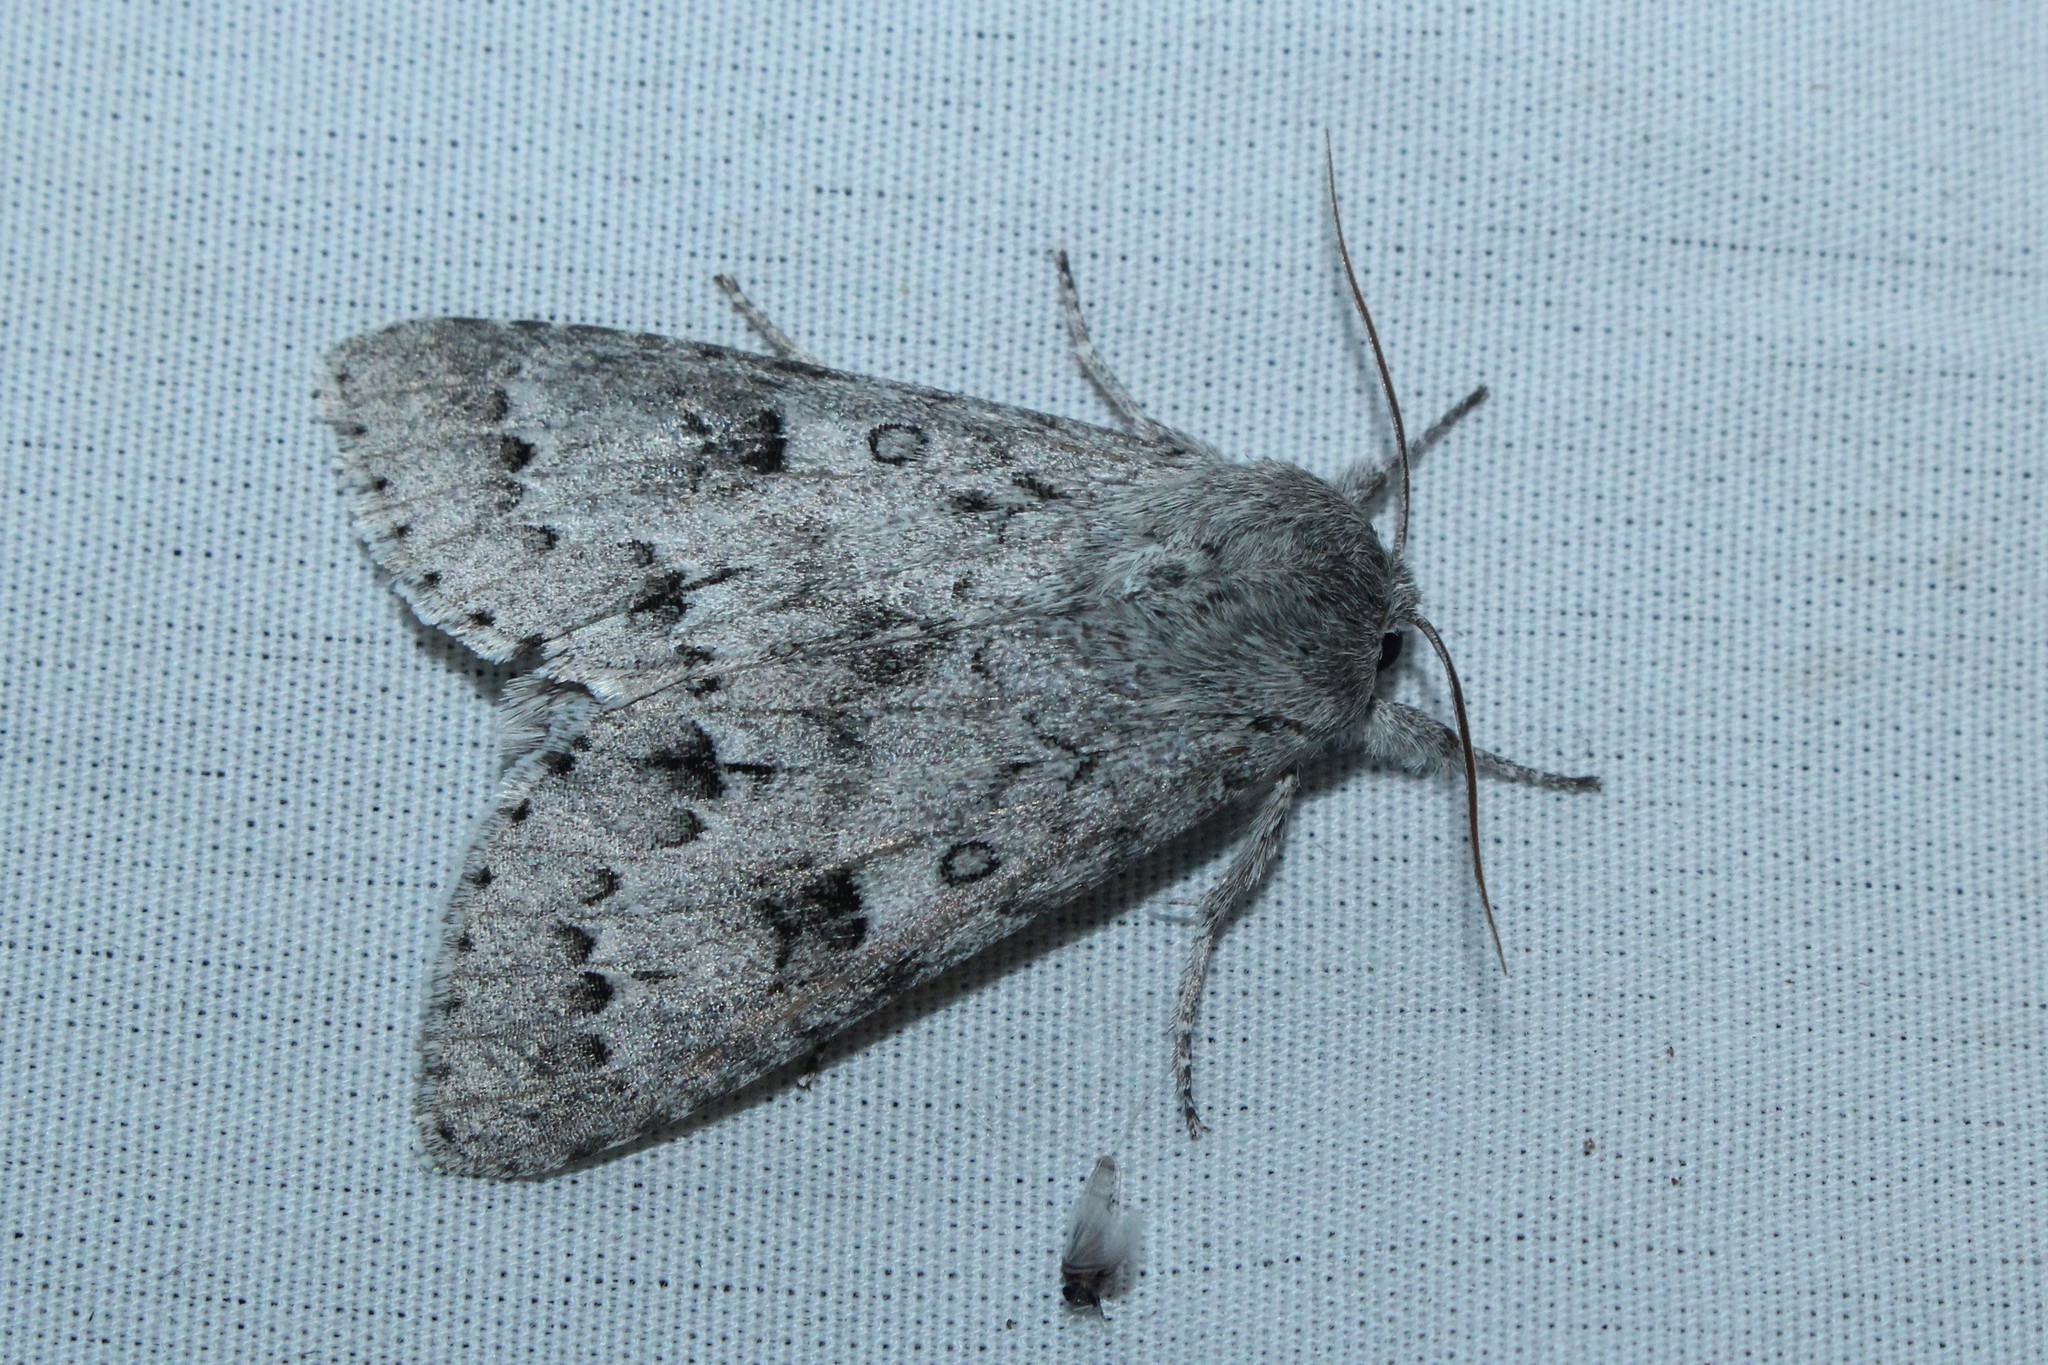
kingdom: Animalia
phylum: Arthropoda
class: Insecta
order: Lepidoptera
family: Noctuidae
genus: Acronicta
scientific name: Acronicta insita
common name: Large gray dagger
